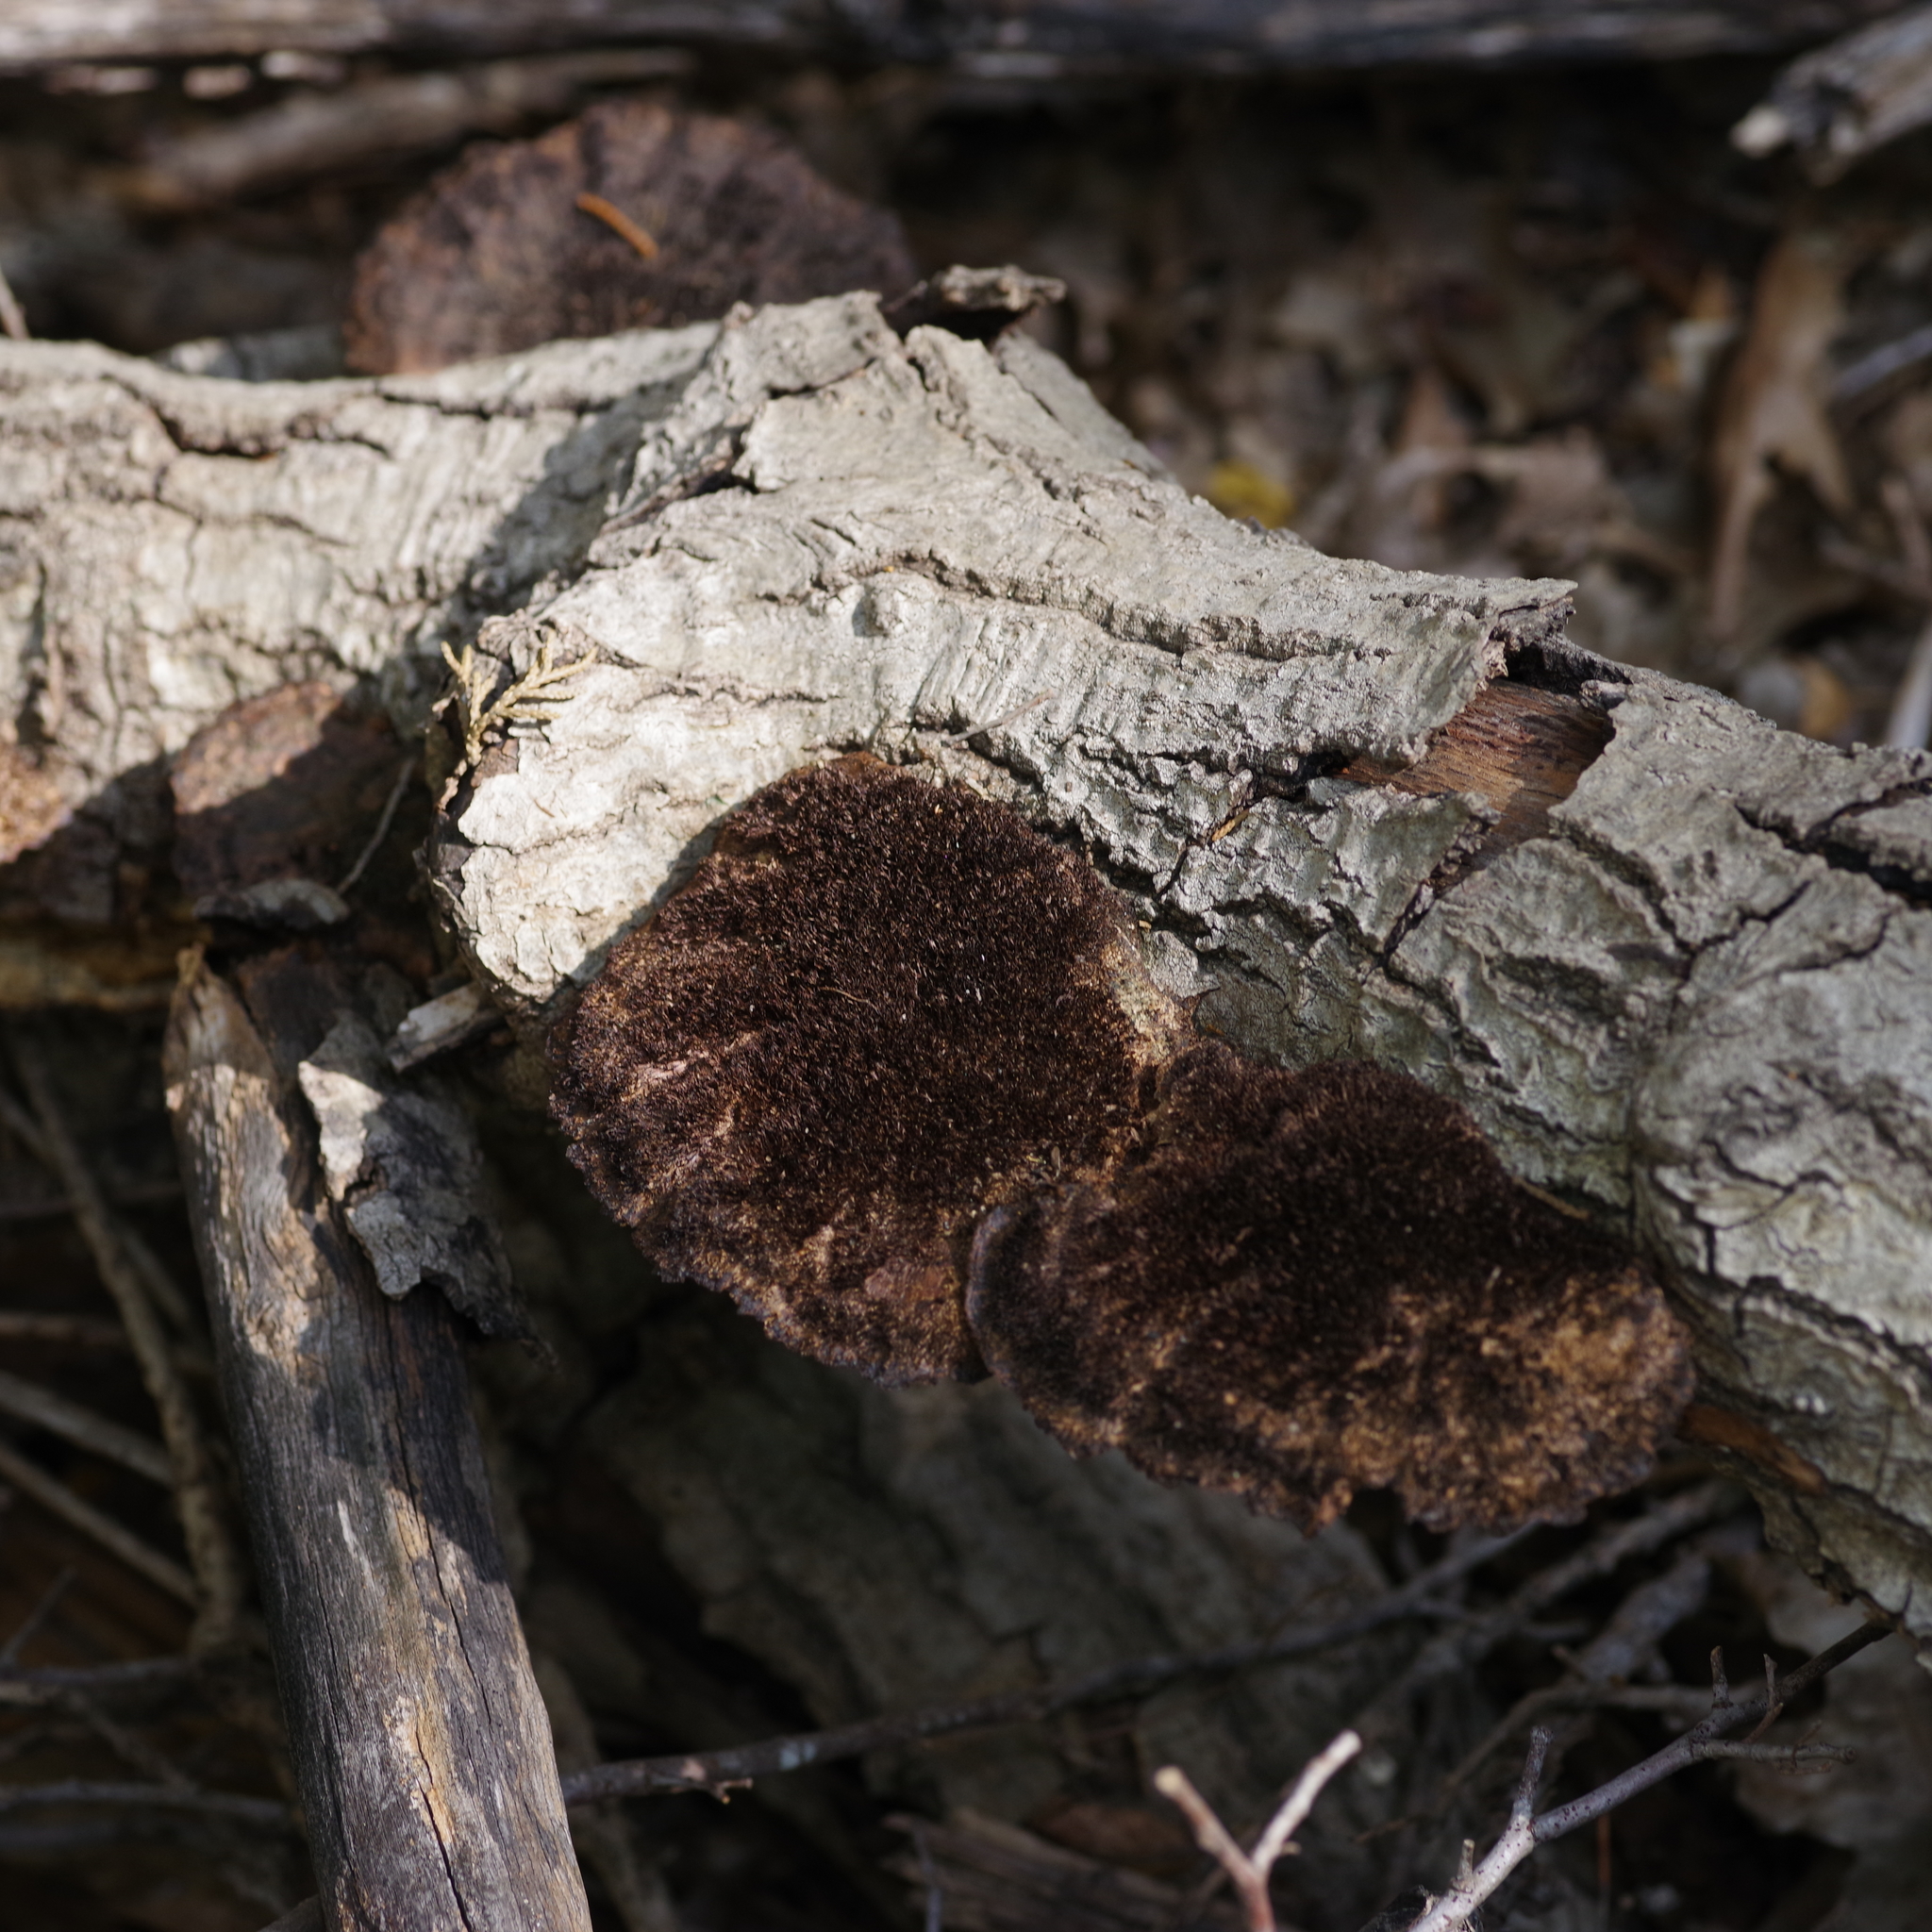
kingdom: Fungi
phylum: Basidiomycota
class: Agaricomycetes
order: Polyporales
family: Cerrenaceae
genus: Cerrena
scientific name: Cerrena hydnoides
